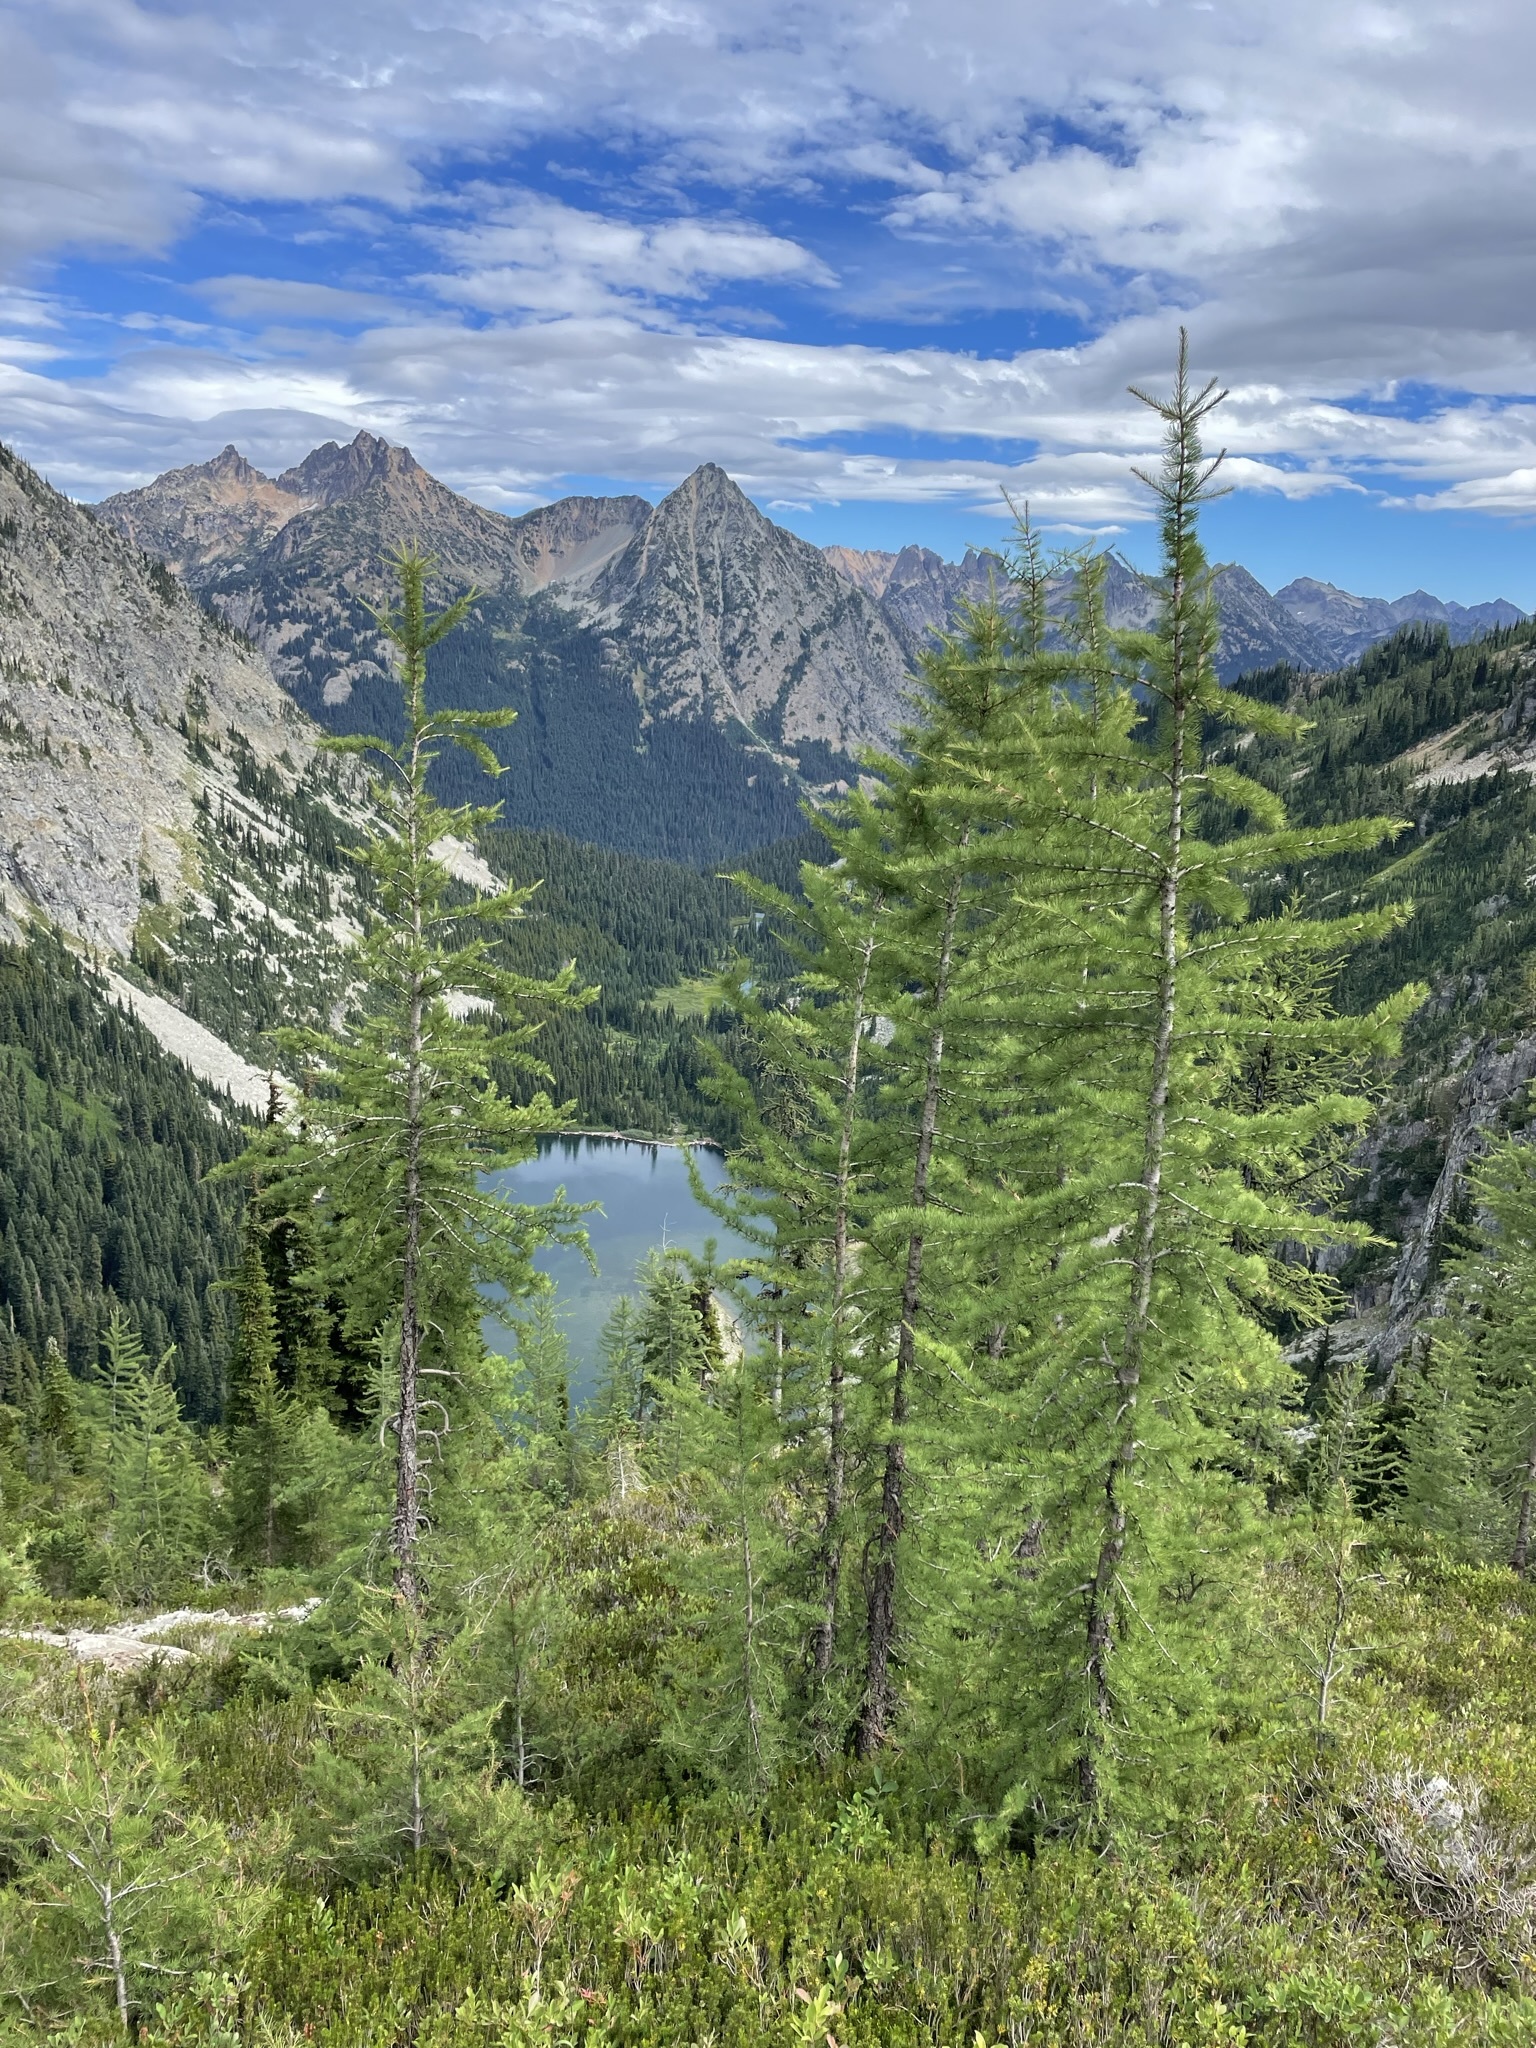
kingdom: Plantae
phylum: Tracheophyta
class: Pinopsida
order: Pinales
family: Pinaceae
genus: Larix
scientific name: Larix lyallii
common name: Alpine larch
